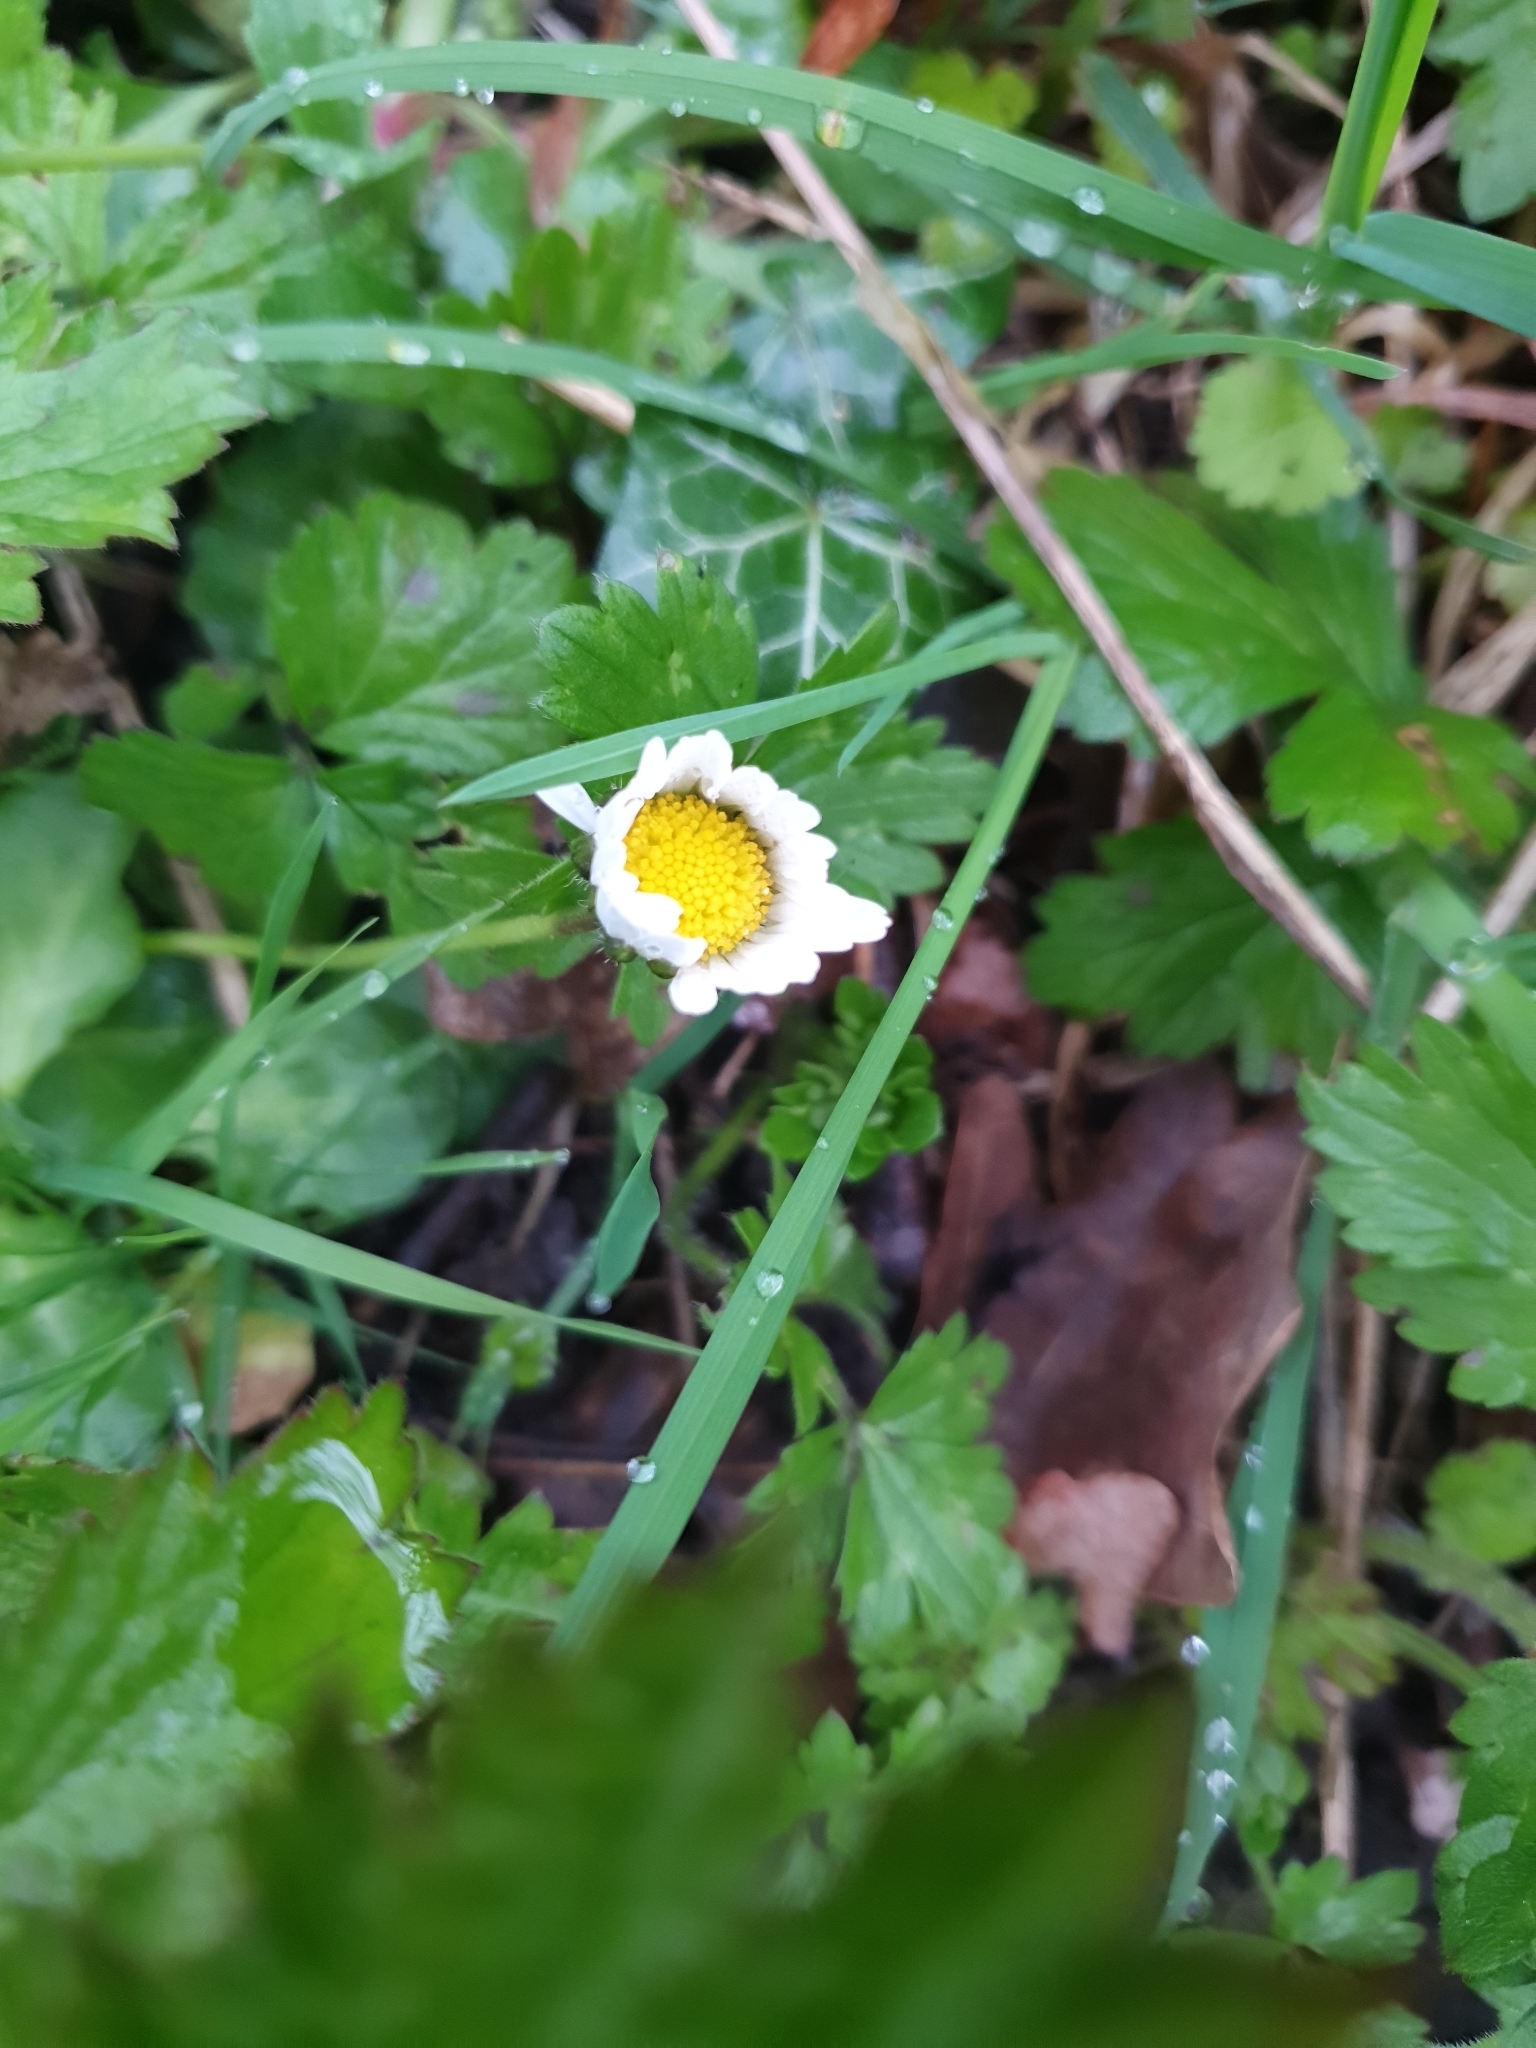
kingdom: Plantae
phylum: Tracheophyta
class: Magnoliopsida
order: Asterales
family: Asteraceae
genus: Bellis
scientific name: Bellis perennis
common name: Lawndaisy
